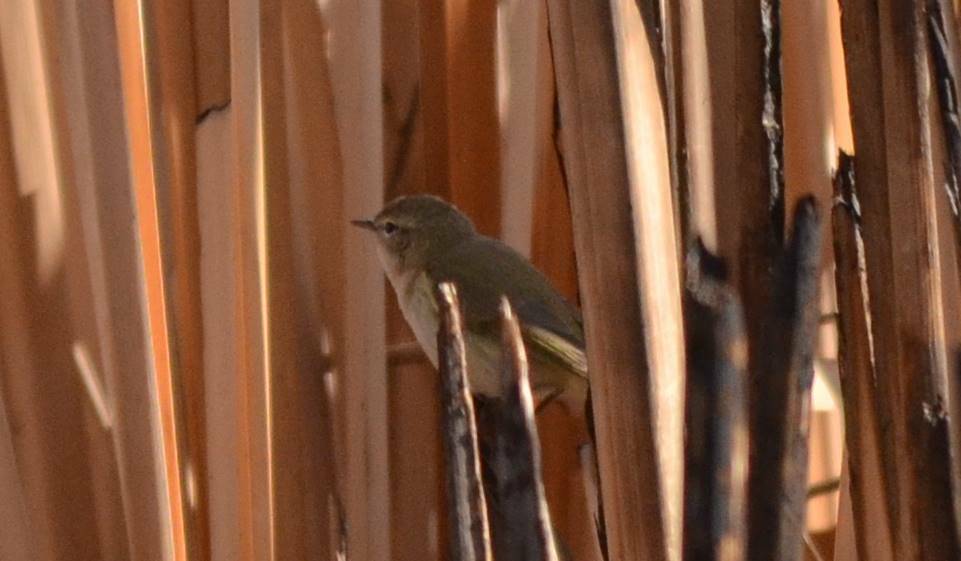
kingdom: Animalia
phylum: Chordata
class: Aves
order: Passeriformes
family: Phylloscopidae
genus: Phylloscopus
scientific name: Phylloscopus collybita
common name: Common chiffchaff
